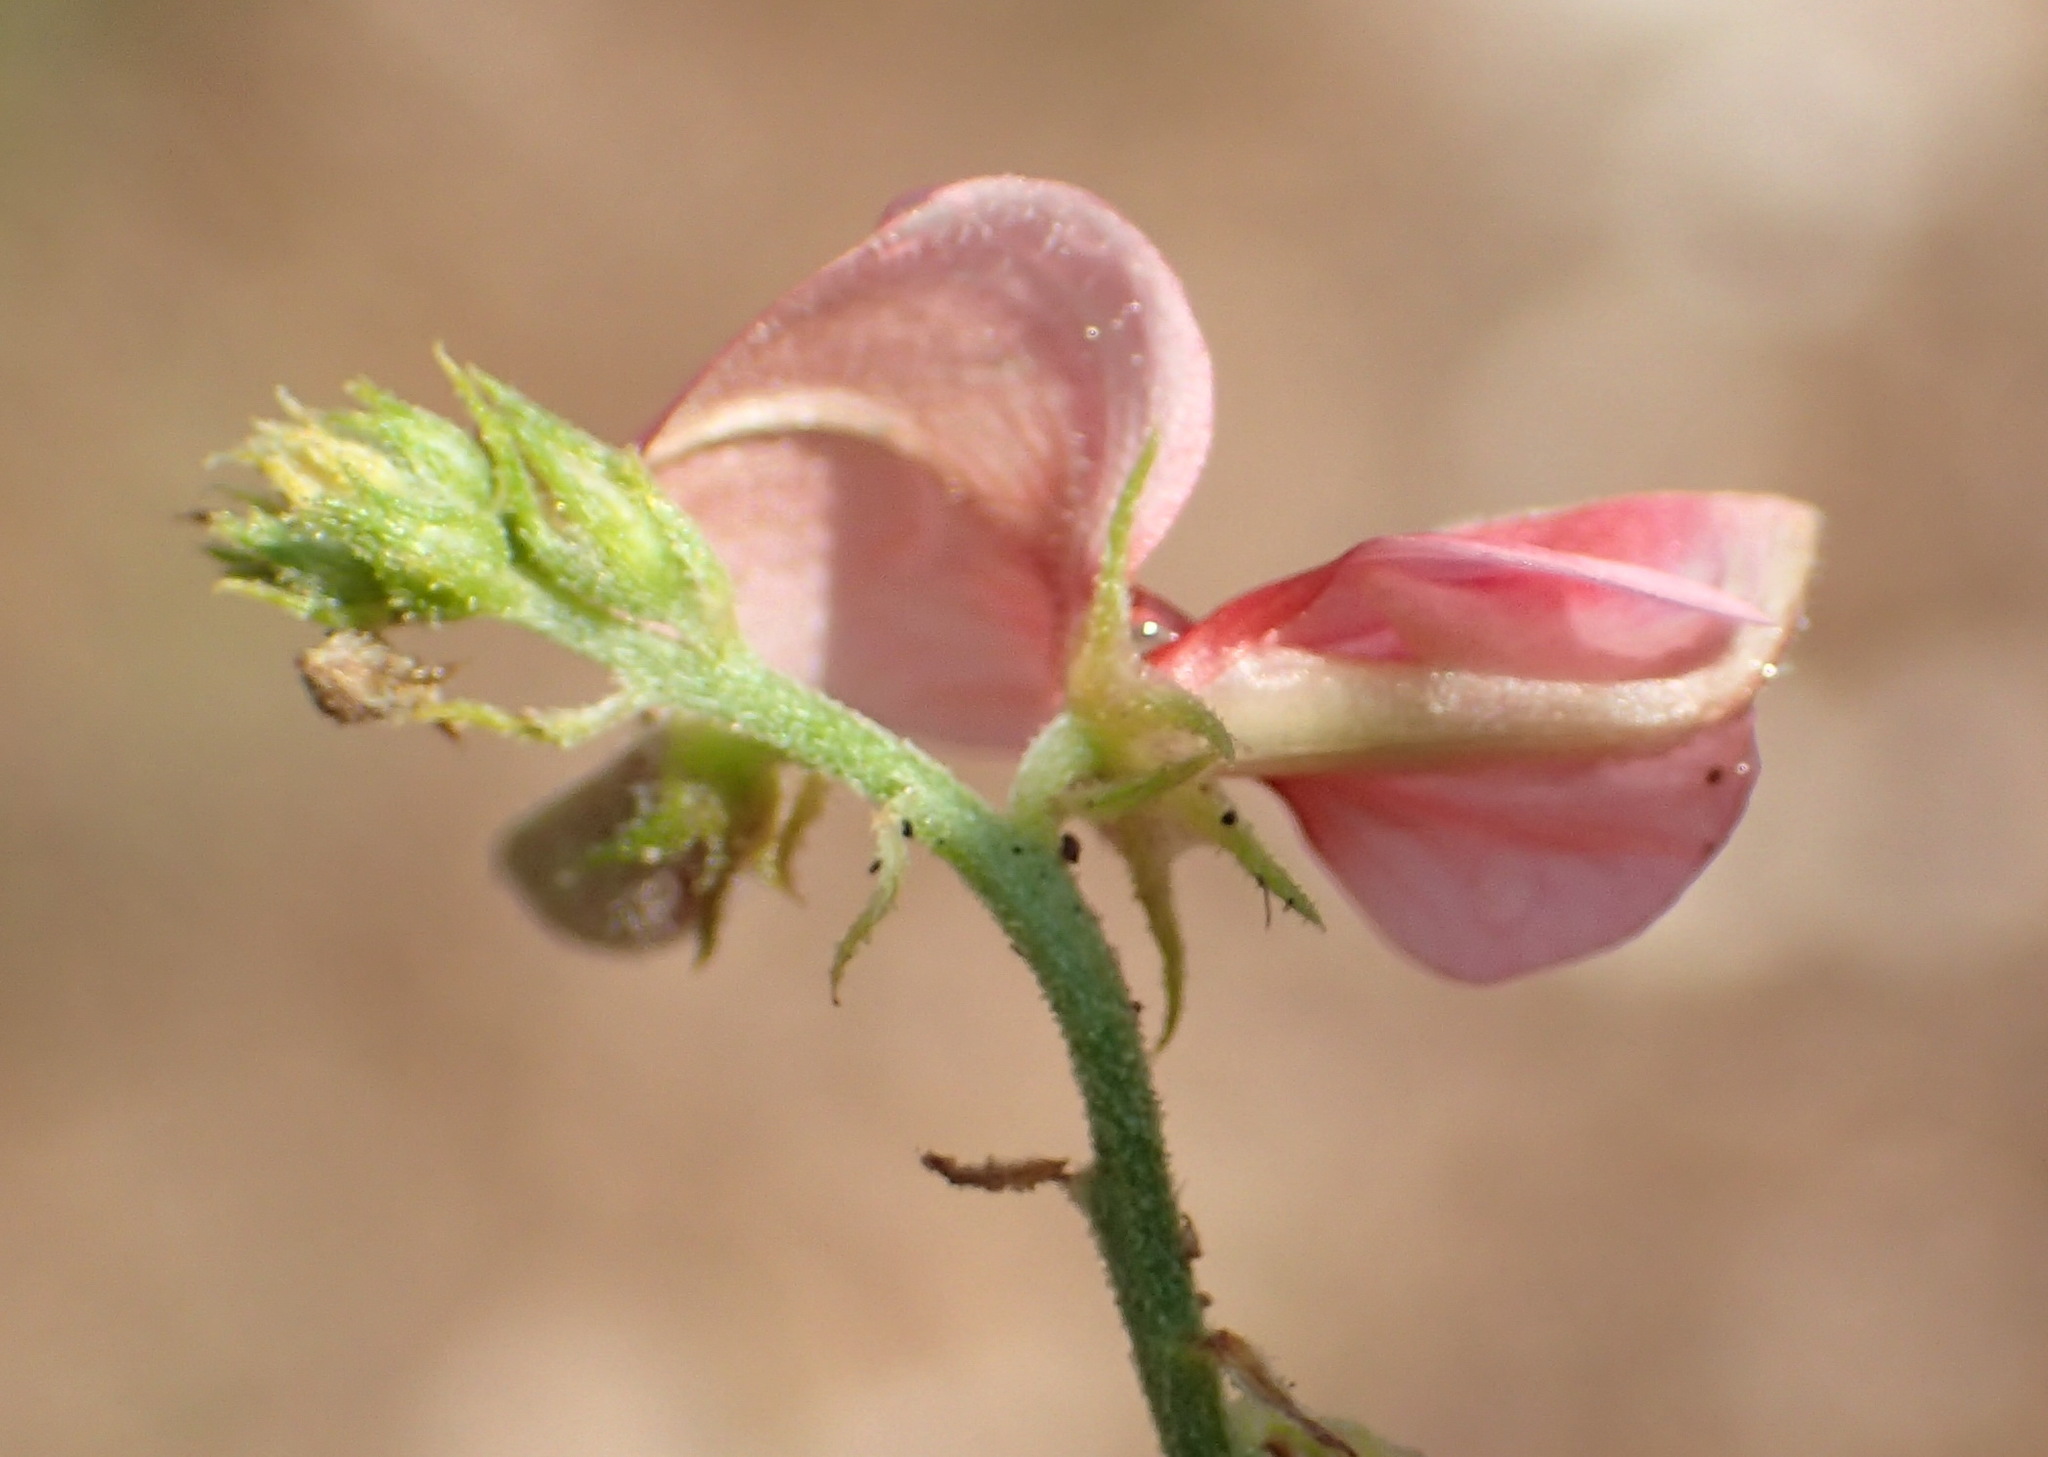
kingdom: Plantae
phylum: Tracheophyta
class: Magnoliopsida
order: Fabales
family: Fabaceae
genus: Indigofera
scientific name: Indigofera heterotricha
